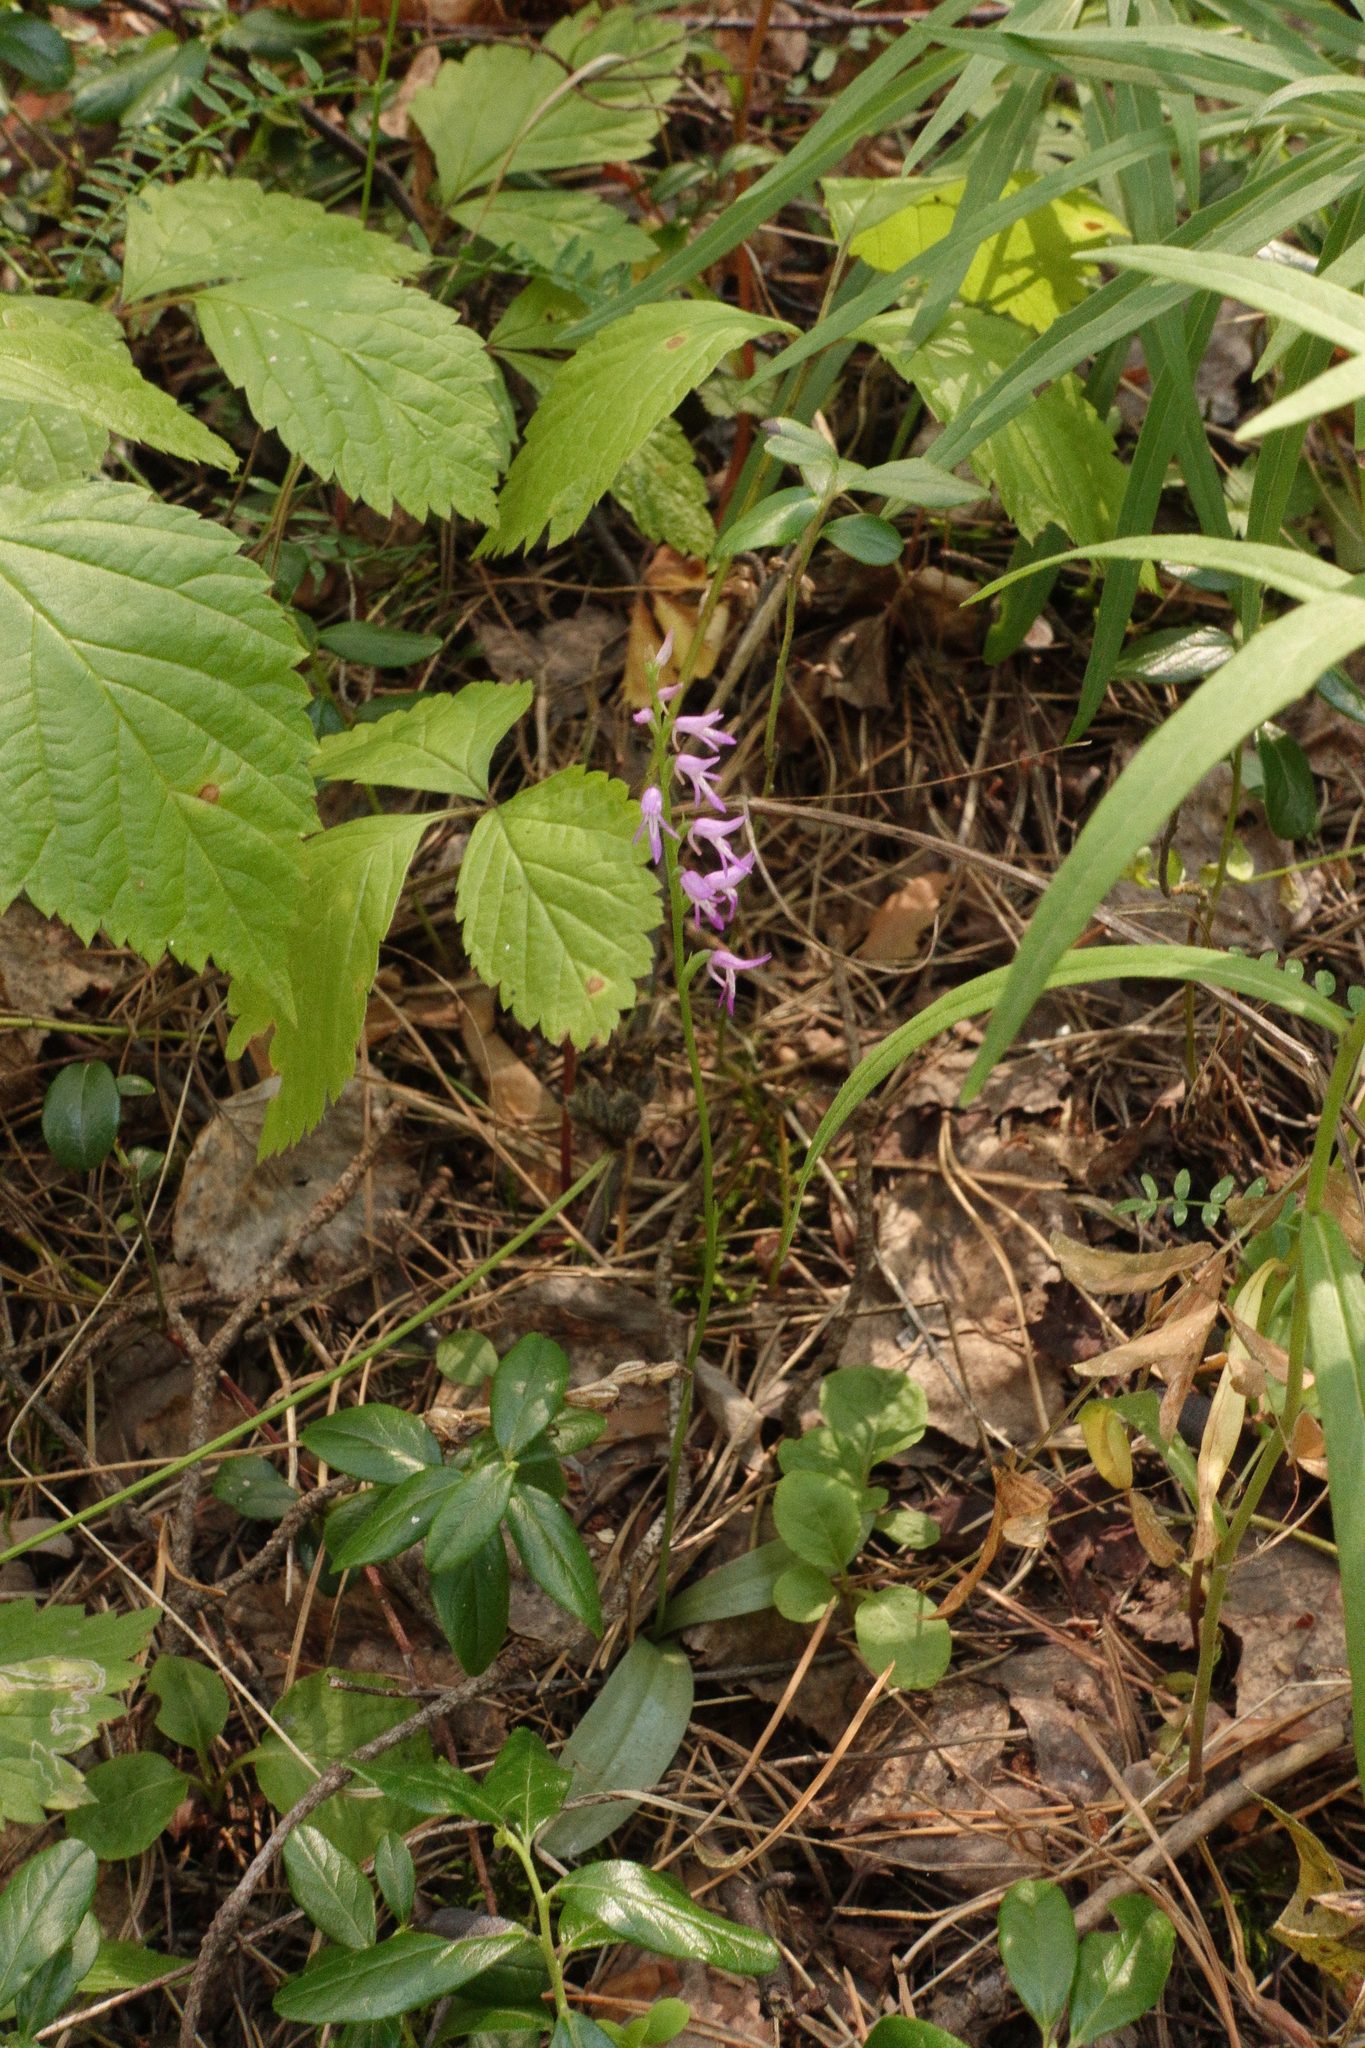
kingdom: Plantae
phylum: Tracheophyta
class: Liliopsida
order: Asparagales
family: Orchidaceae
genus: Hemipilia
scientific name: Hemipilia cucullata
